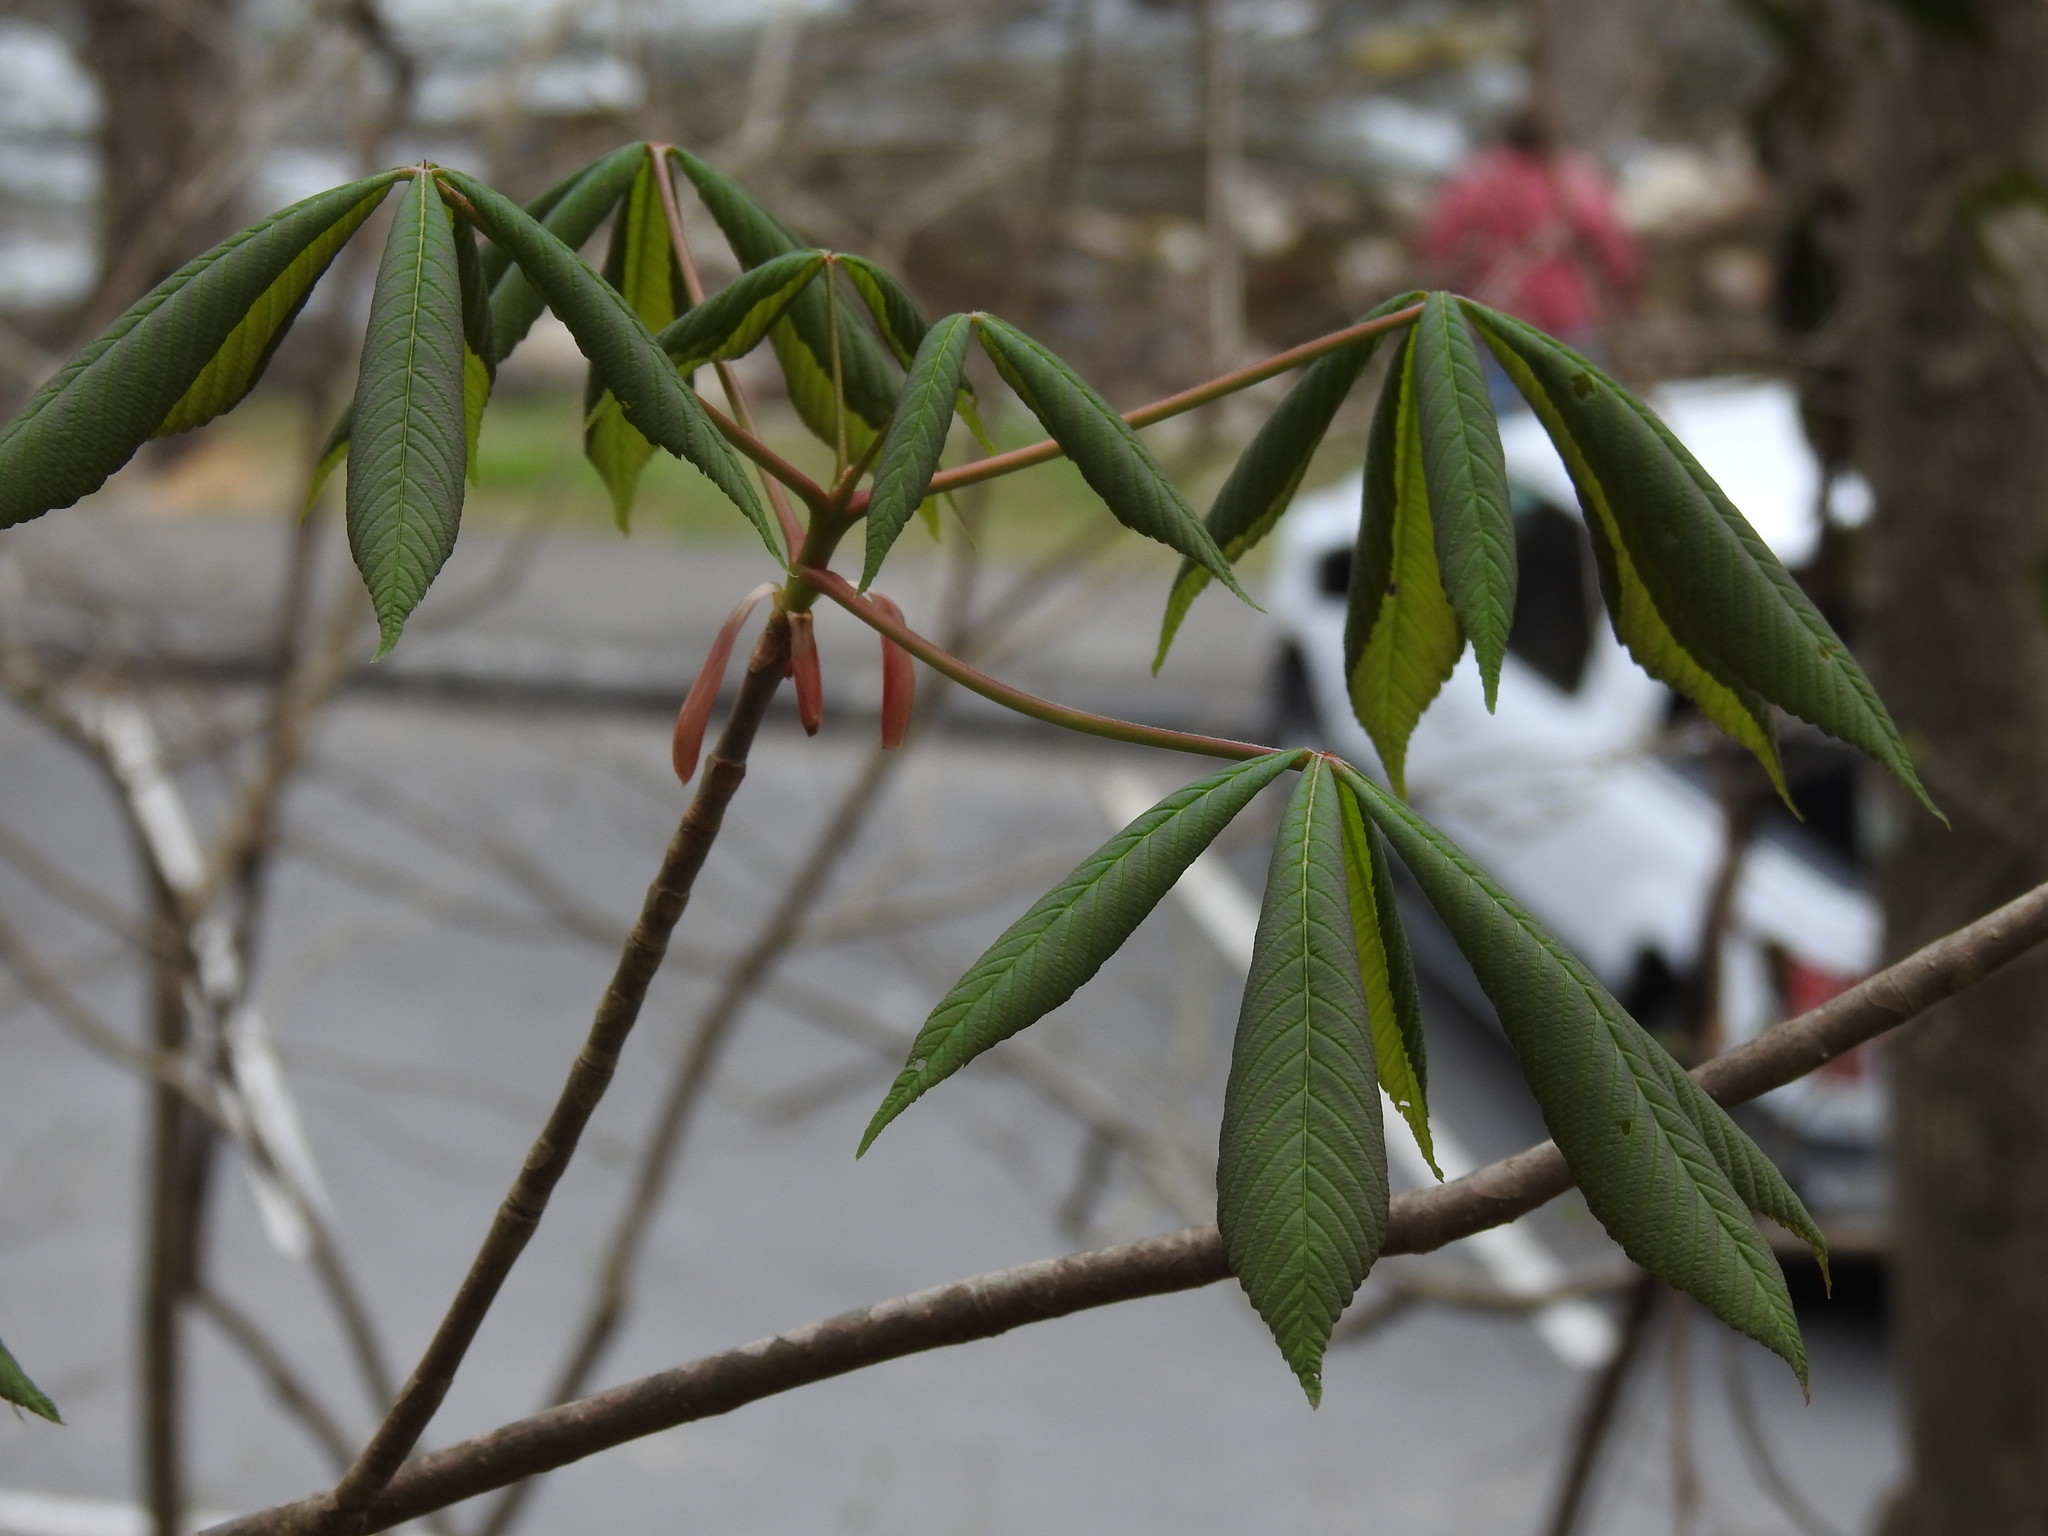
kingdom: Plantae
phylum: Tracheophyta
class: Magnoliopsida
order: Sapindales
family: Sapindaceae
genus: Aesculus
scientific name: Aesculus pavia
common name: Red buckeye
